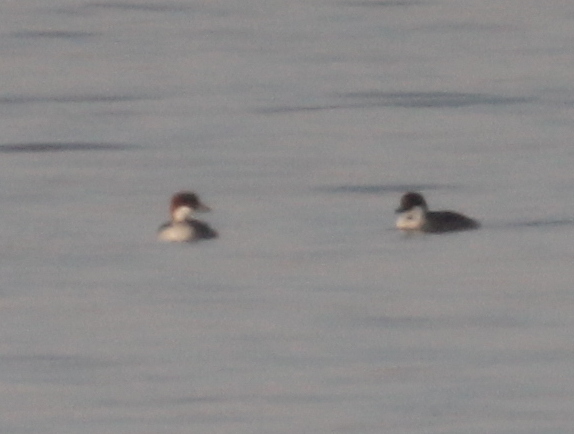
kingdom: Animalia
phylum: Chordata
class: Aves
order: Anseriformes
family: Anatidae
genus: Mergellus
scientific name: Mergellus albellus
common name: Smew
